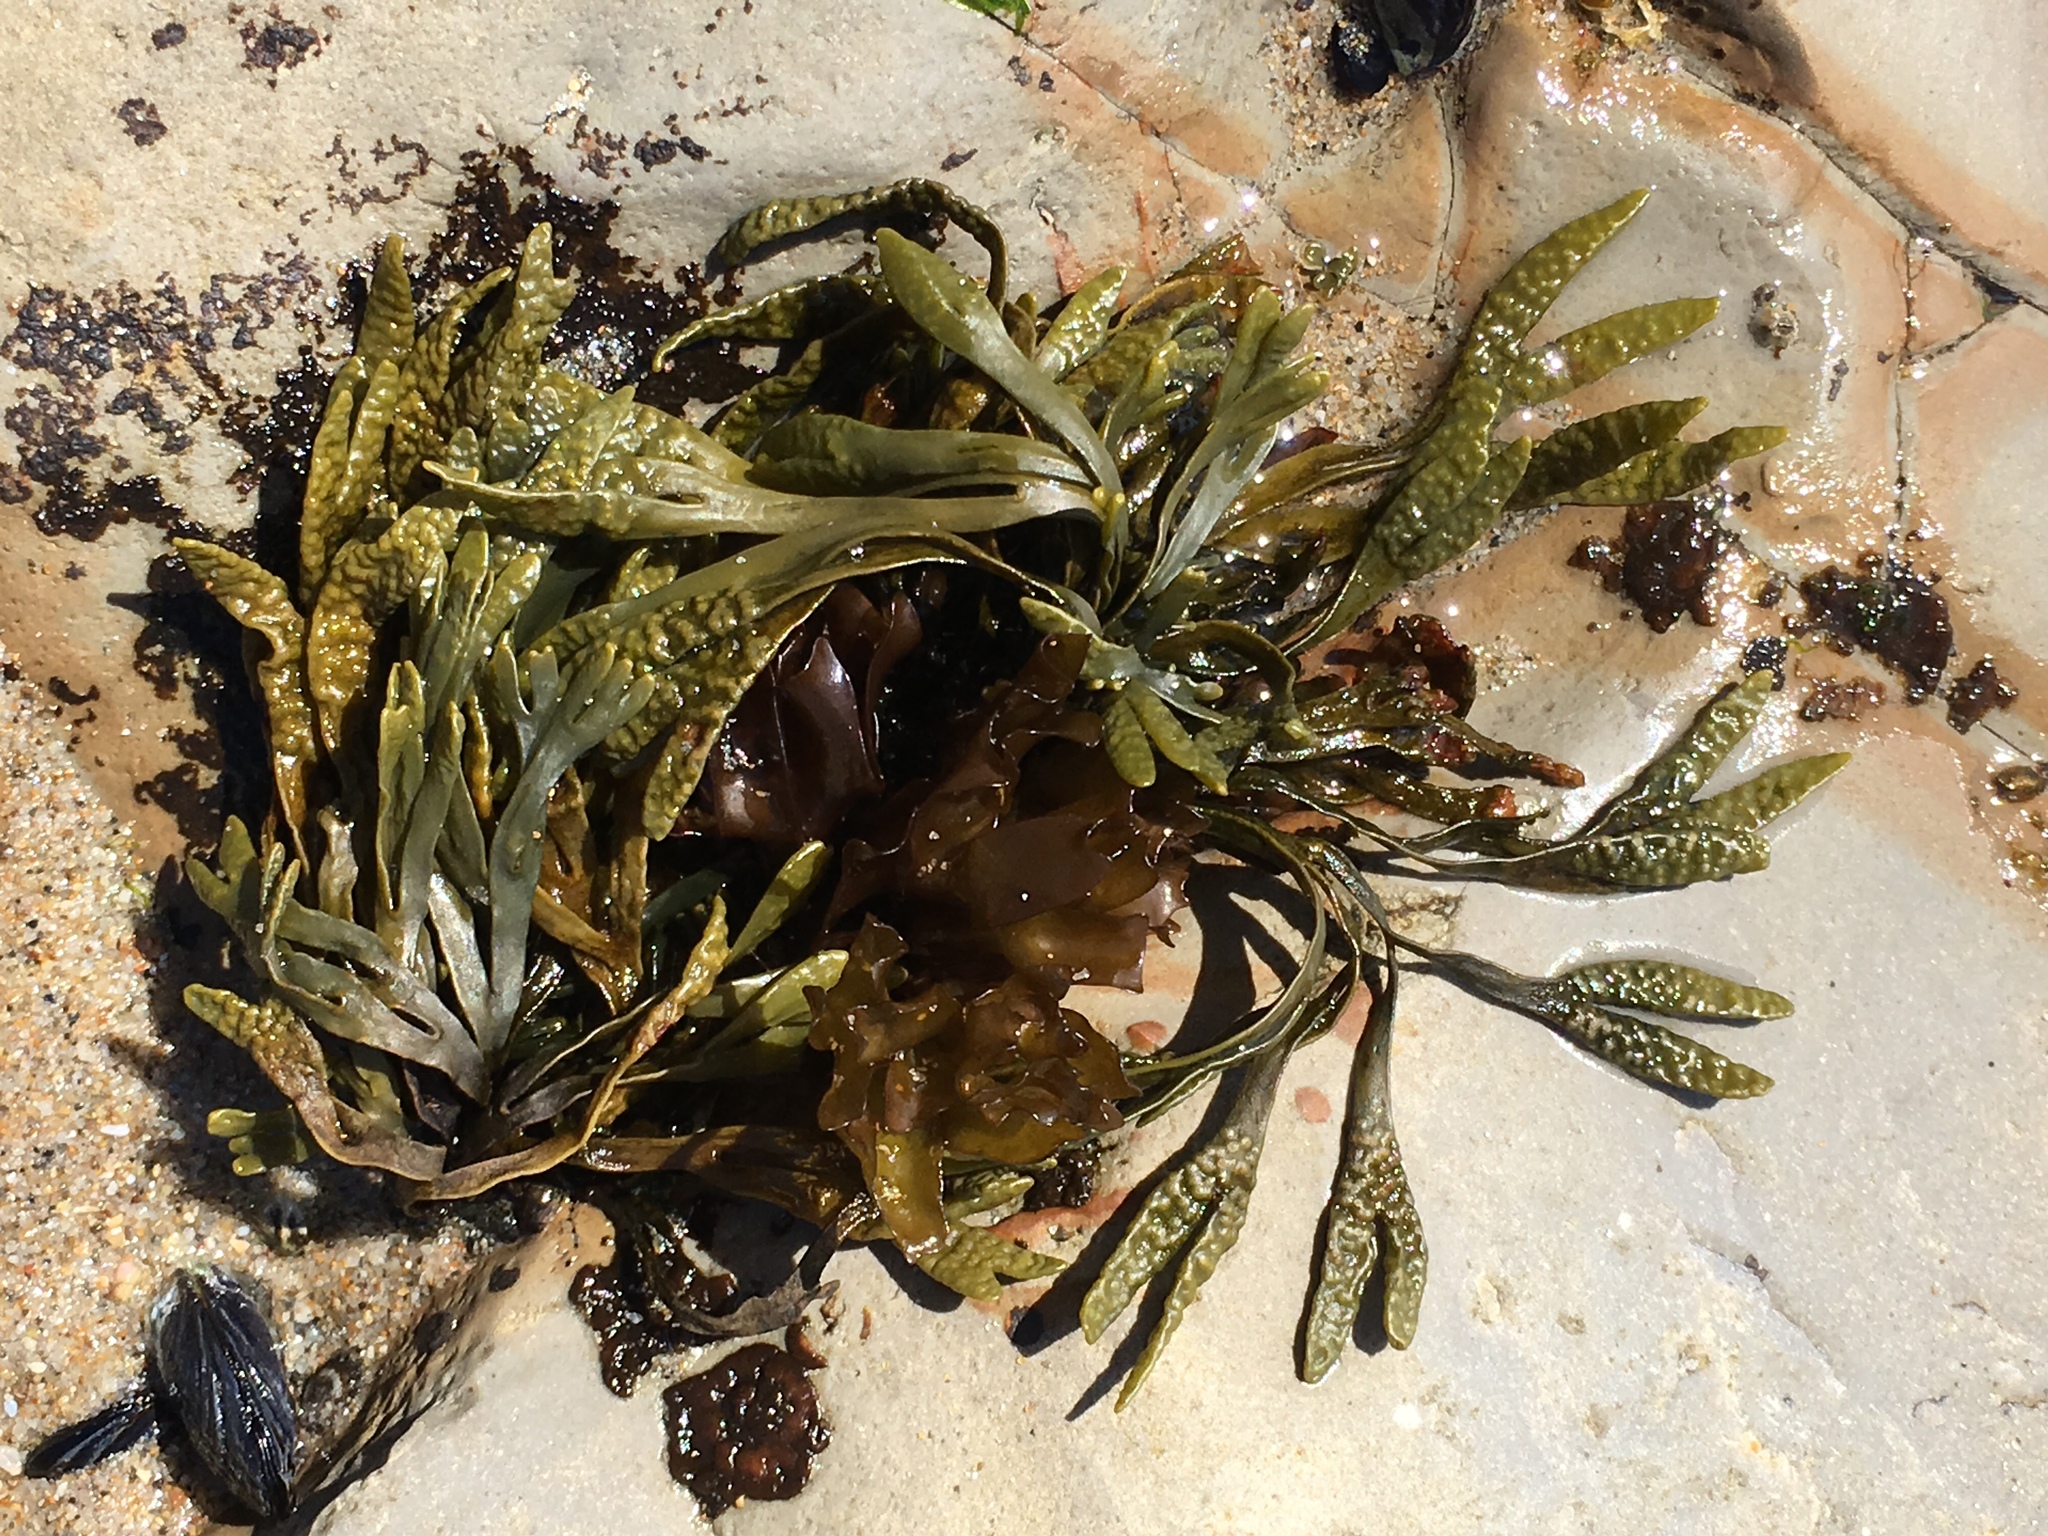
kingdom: Chromista
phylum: Ochrophyta
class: Phaeophyceae
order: Fucales
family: Fucaceae
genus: Pelvetiopsis
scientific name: Pelvetiopsis limitata
